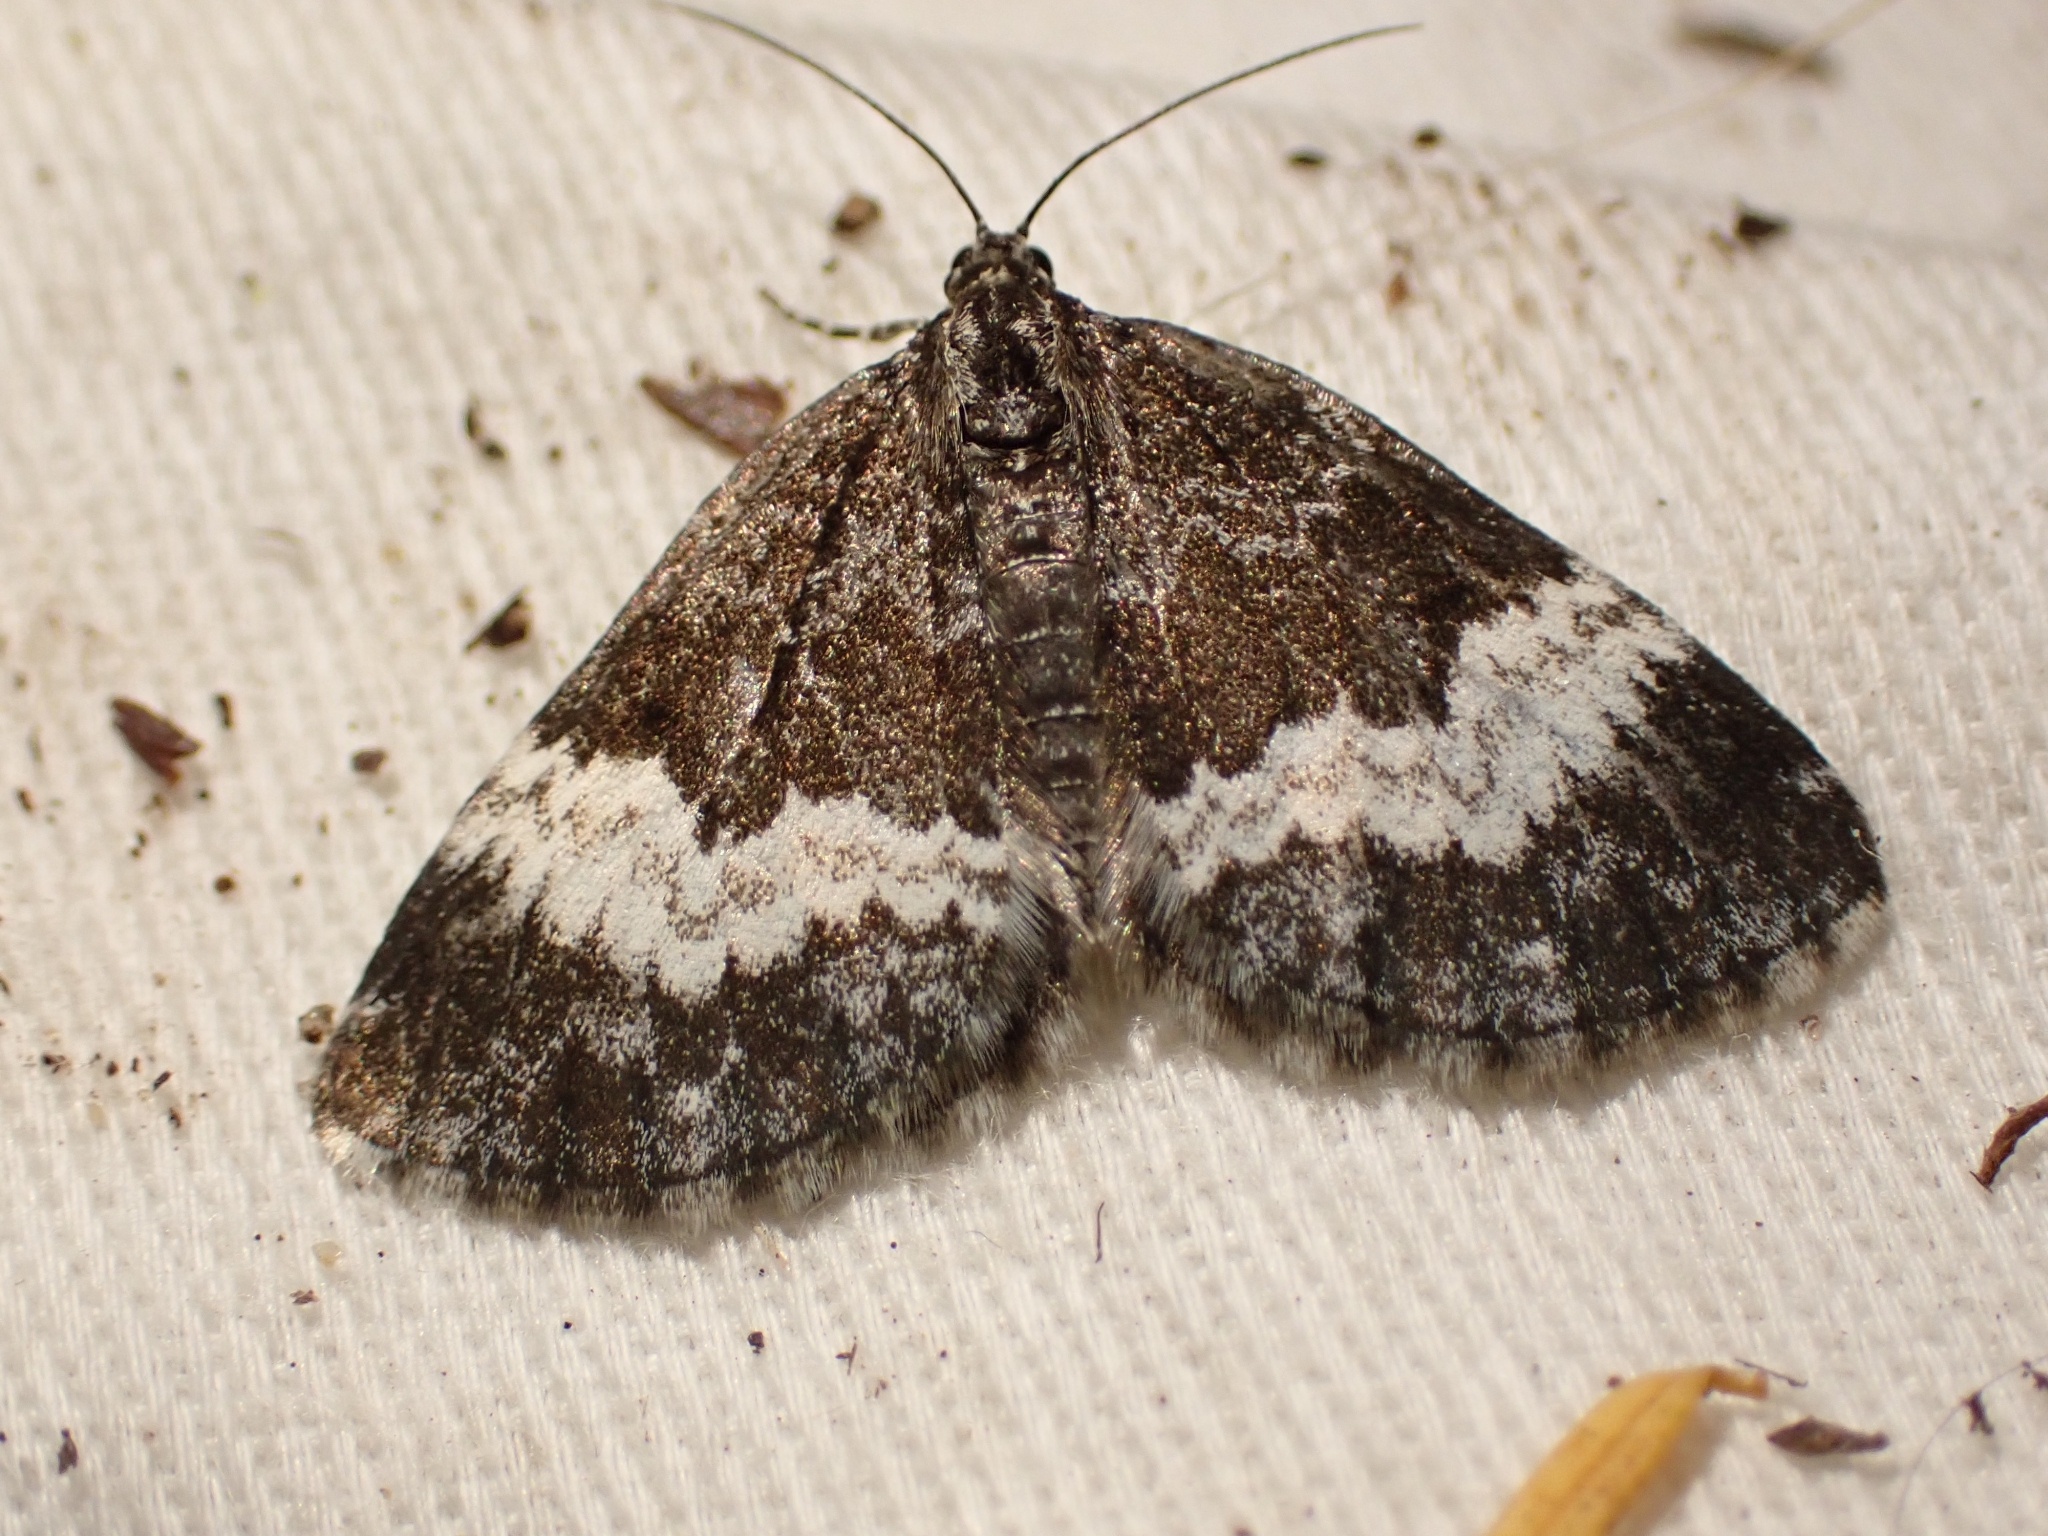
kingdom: Animalia
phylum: Arthropoda
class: Insecta
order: Lepidoptera
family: Geometridae
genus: Spargania
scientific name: Spargania luctuata
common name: White-banded carpet
